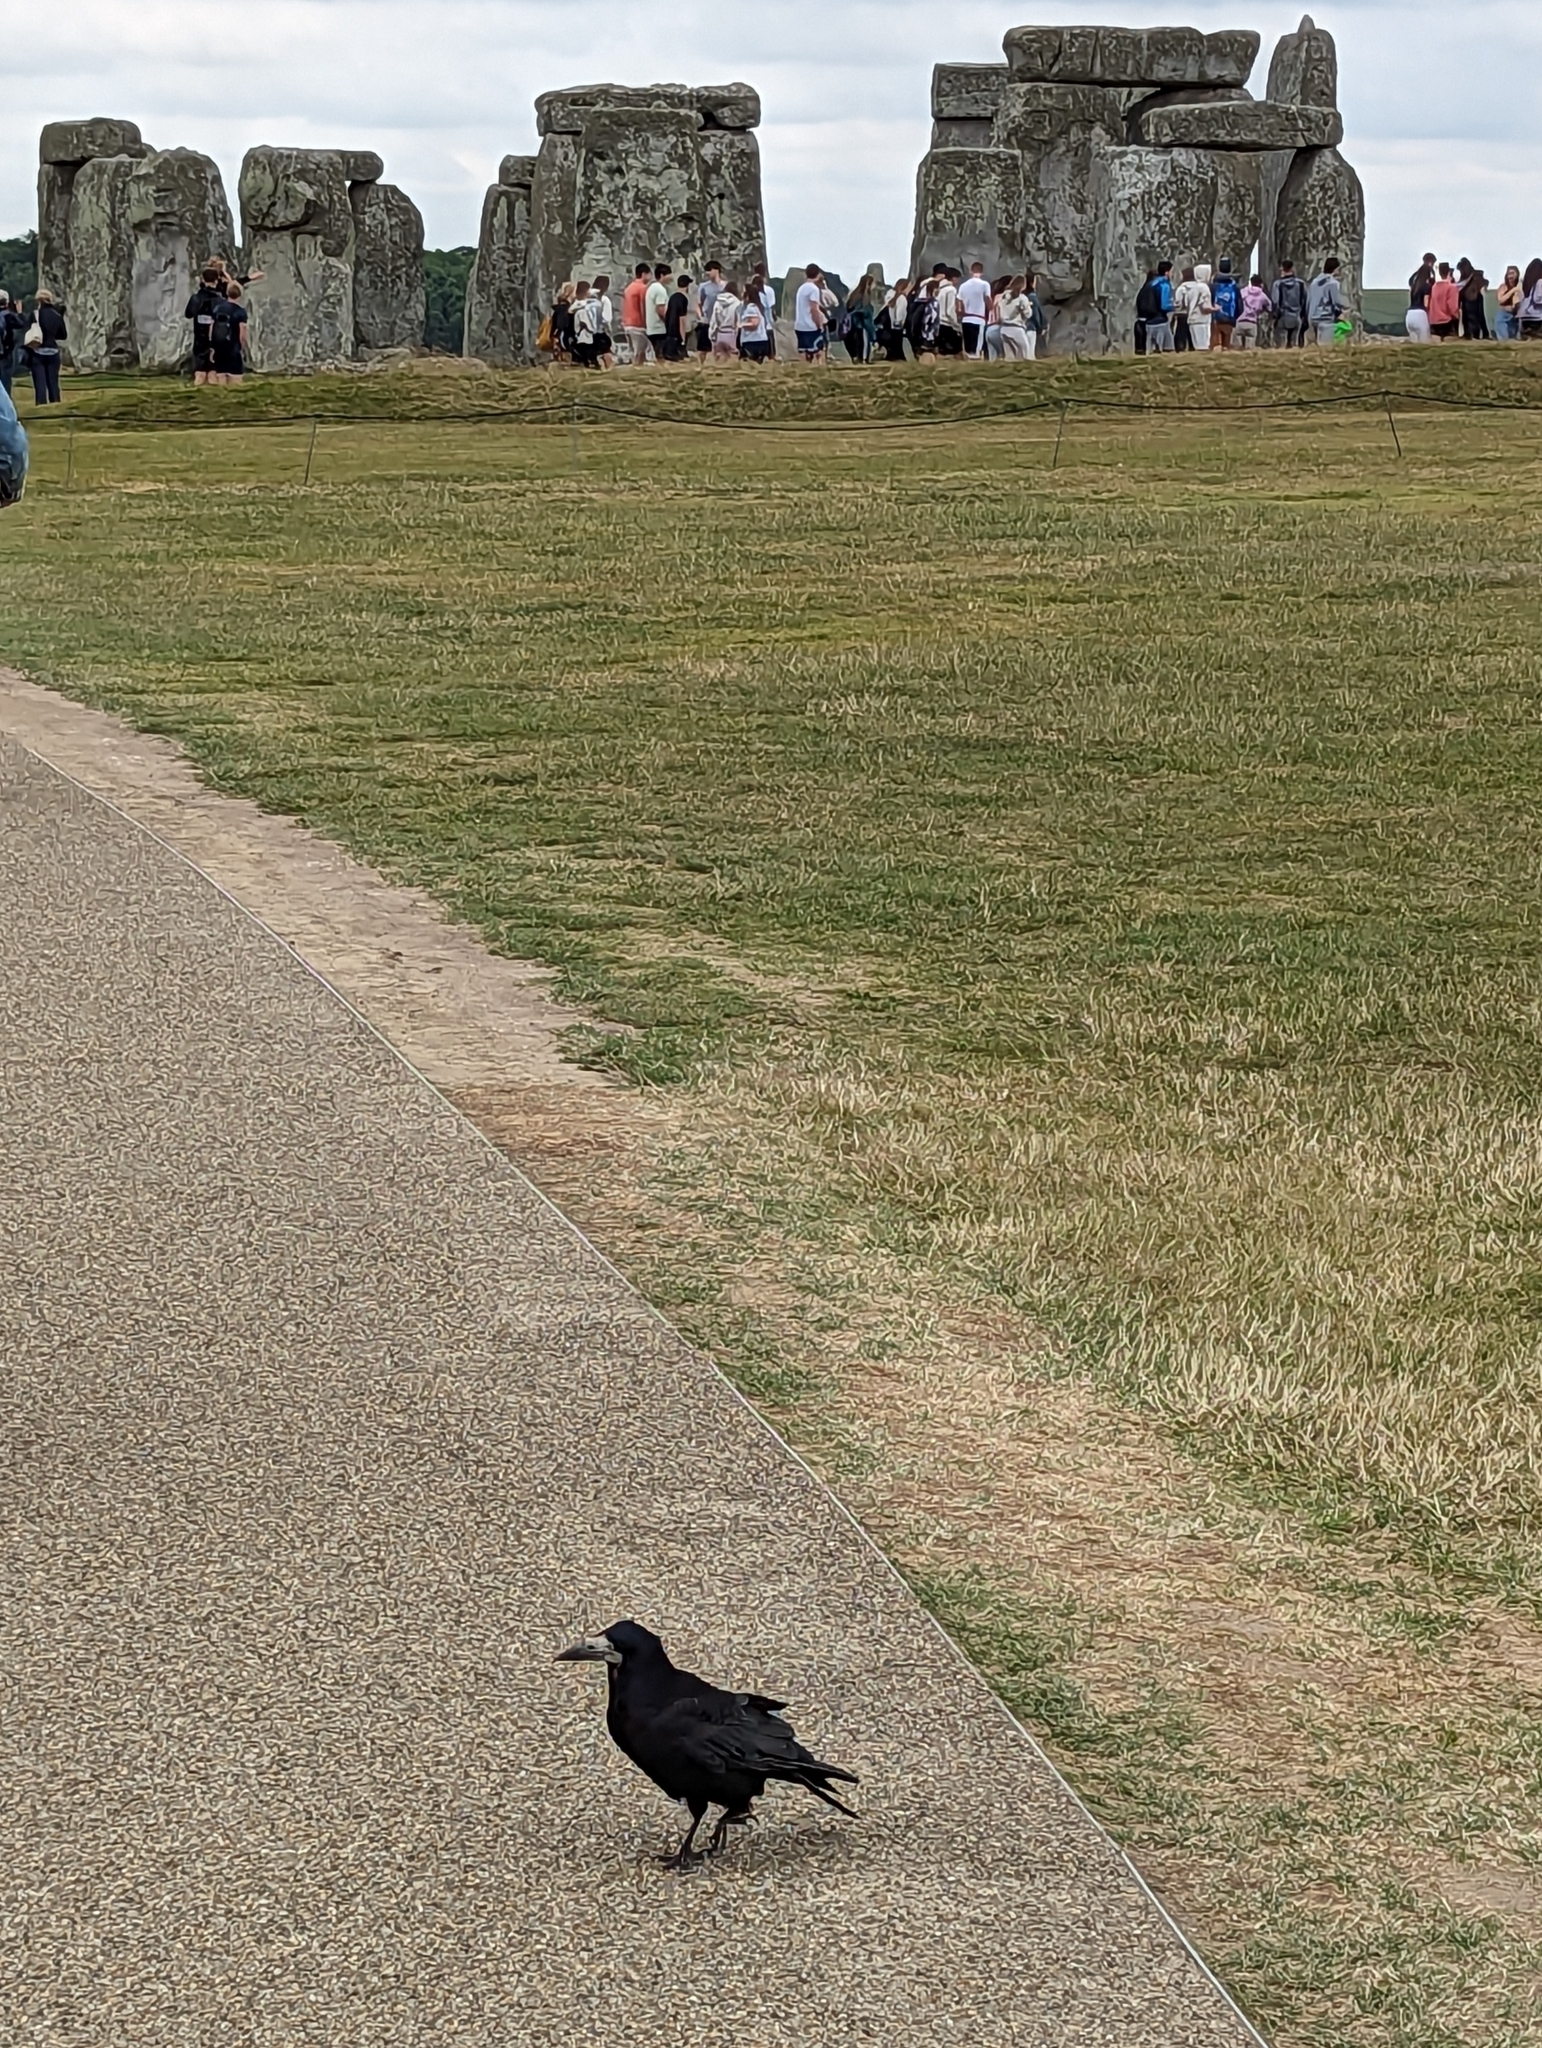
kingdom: Animalia
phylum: Chordata
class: Aves
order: Passeriformes
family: Corvidae
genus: Corvus
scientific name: Corvus frugilegus
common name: Rook
